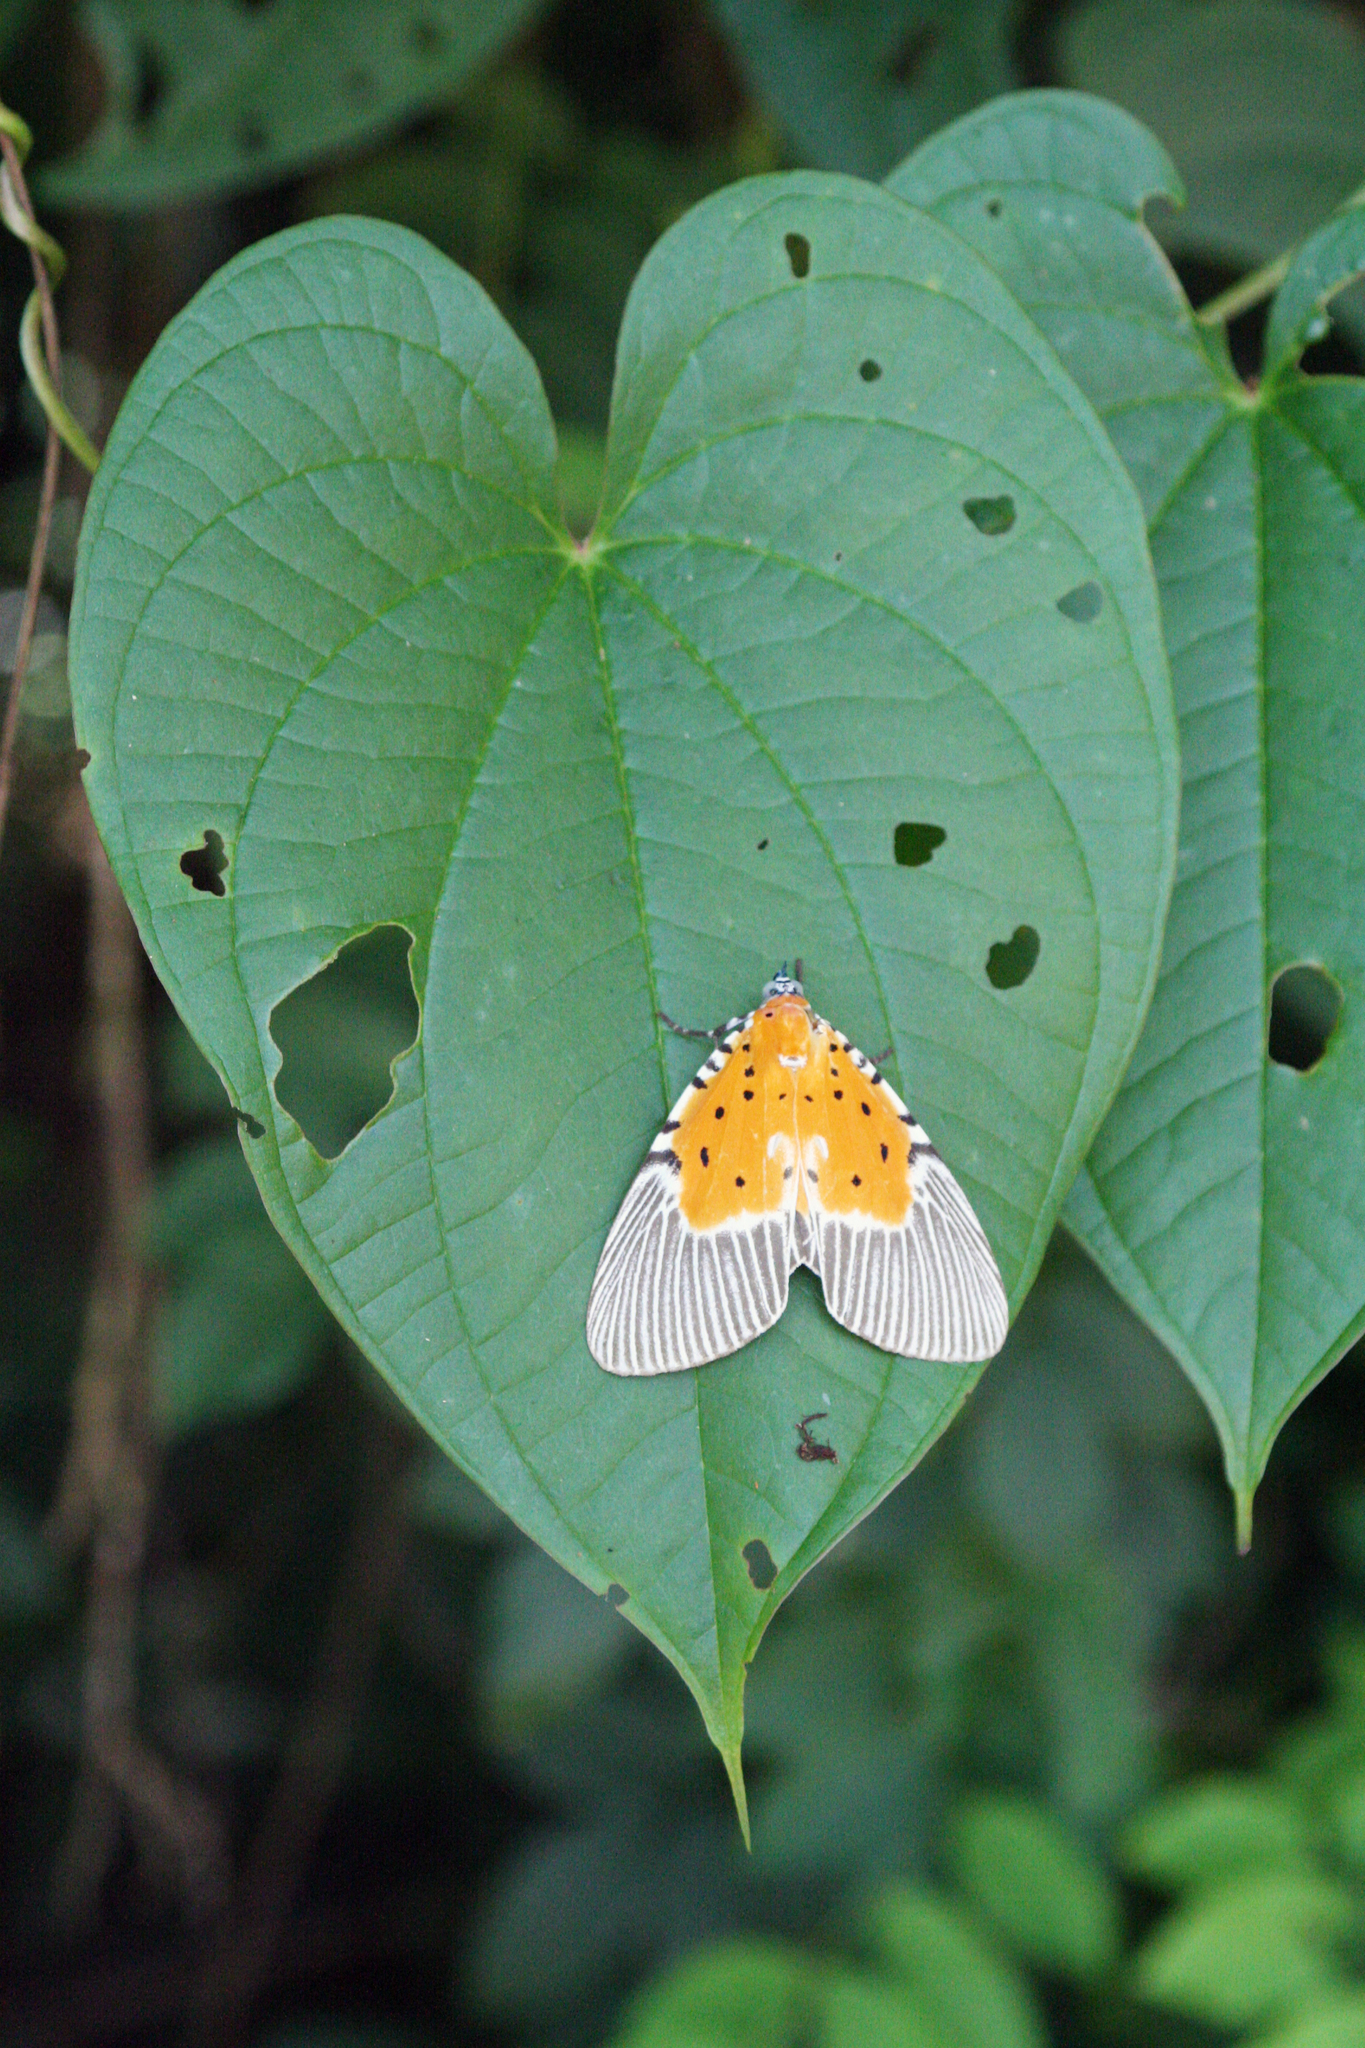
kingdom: Animalia
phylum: Arthropoda
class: Insecta
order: Lepidoptera
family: Erebidae
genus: Peridrome
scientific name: Peridrome orbicularis
